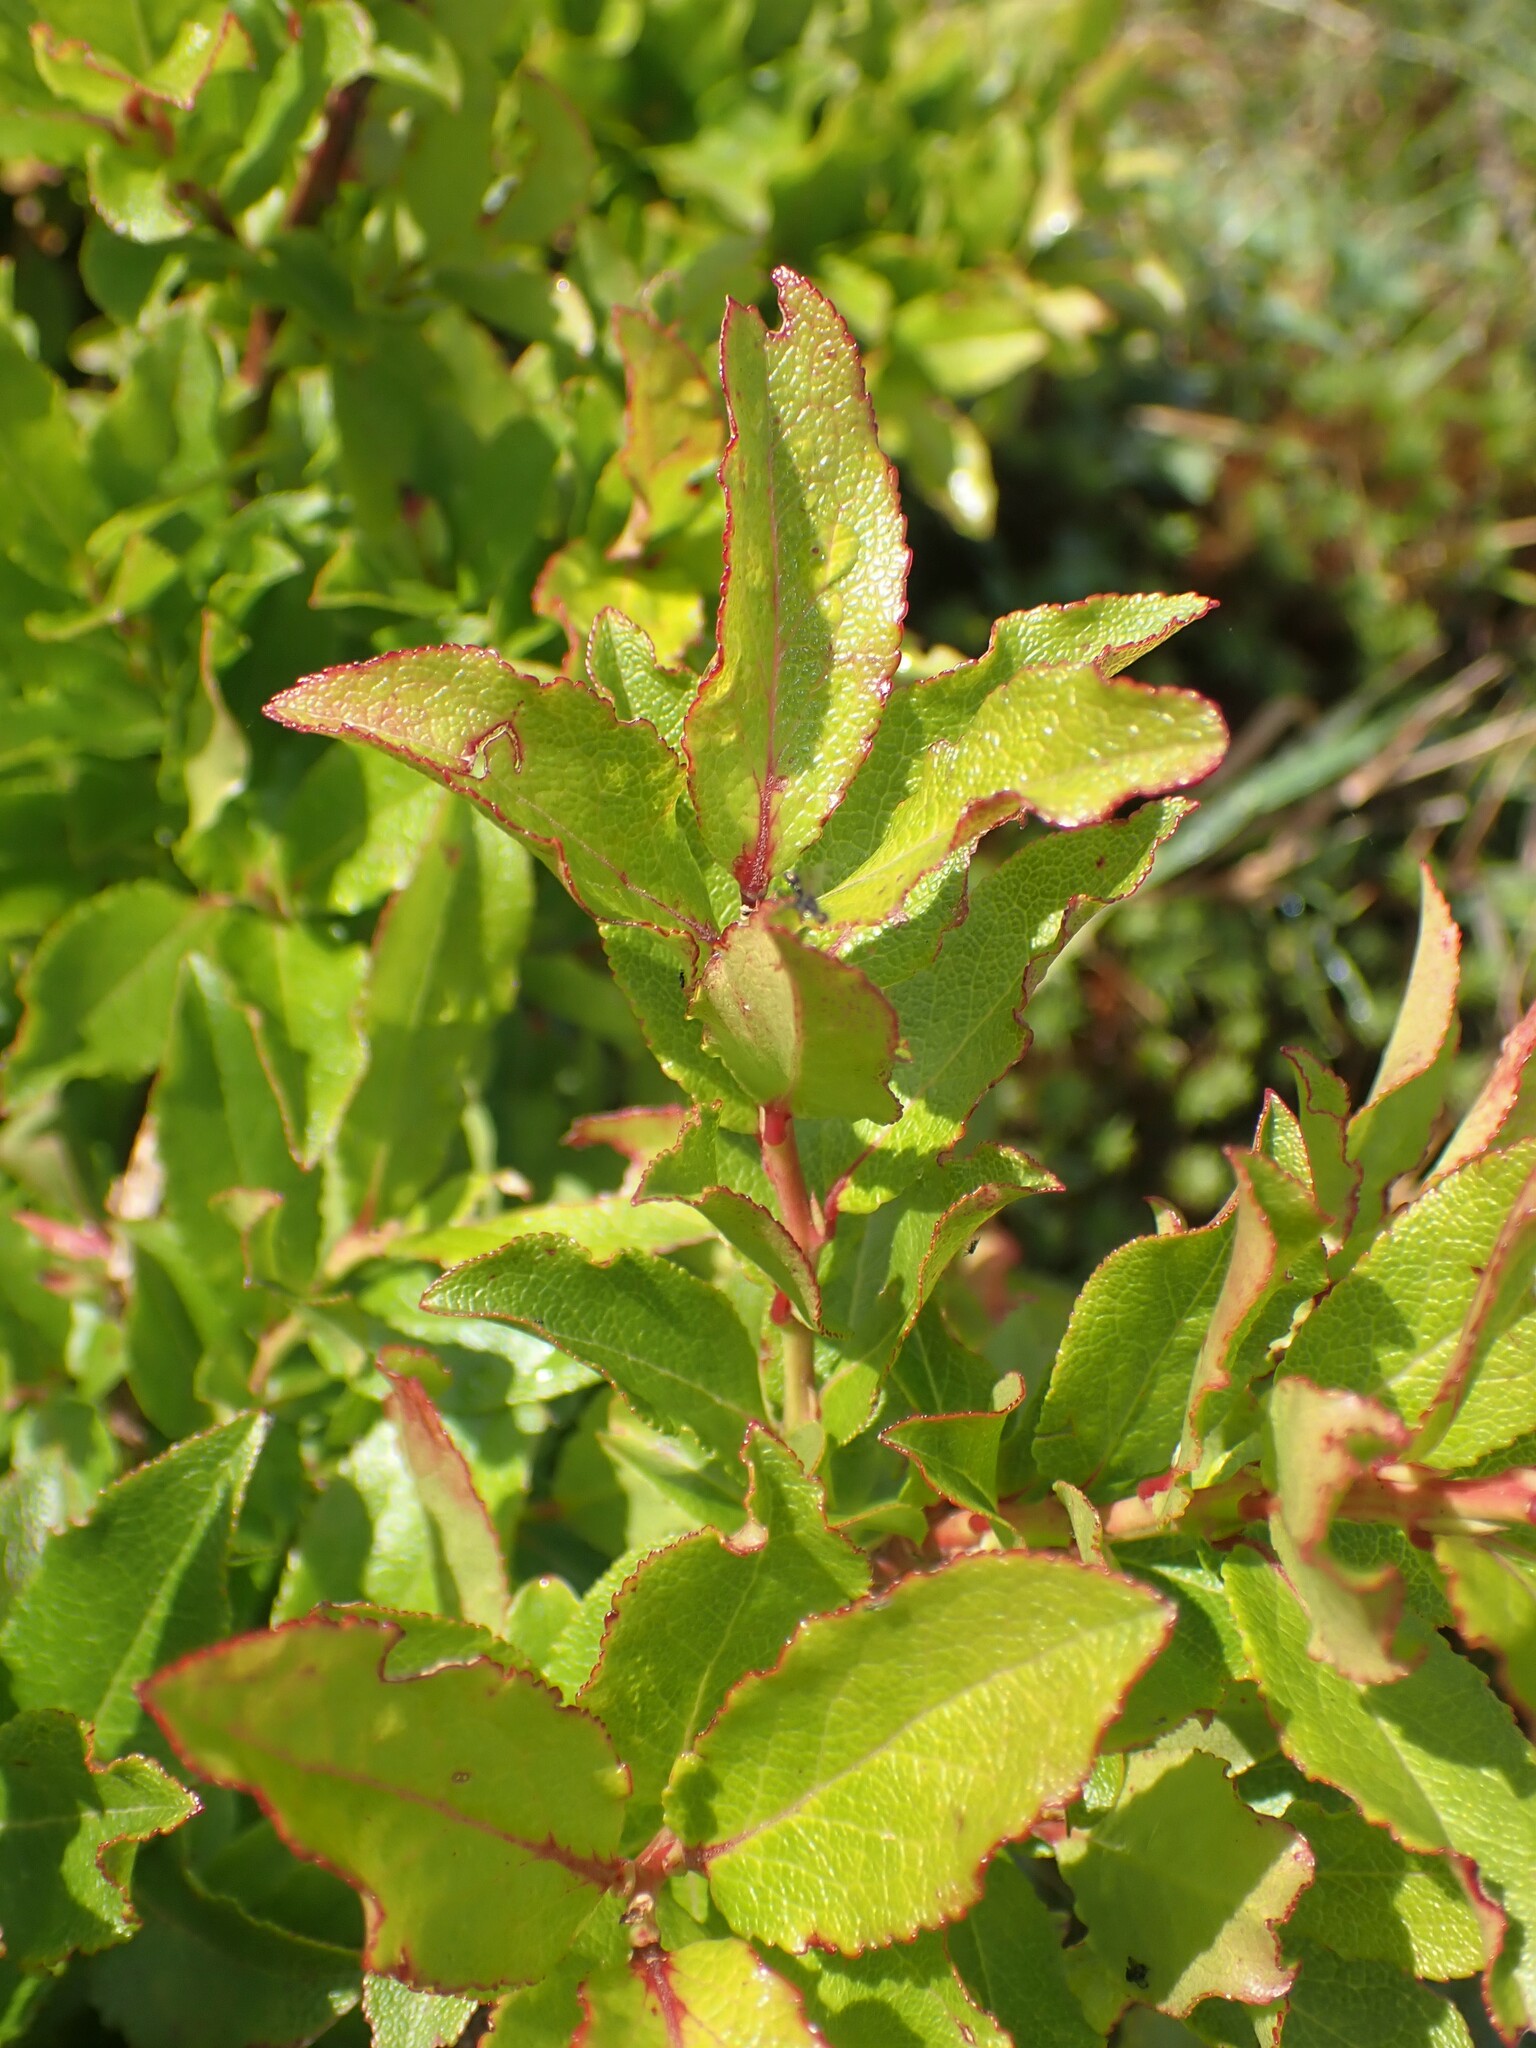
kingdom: Plantae
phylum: Tracheophyta
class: Magnoliopsida
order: Ericales
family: Ericaceae
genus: Vaccinium
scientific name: Vaccinium cylindraceum
